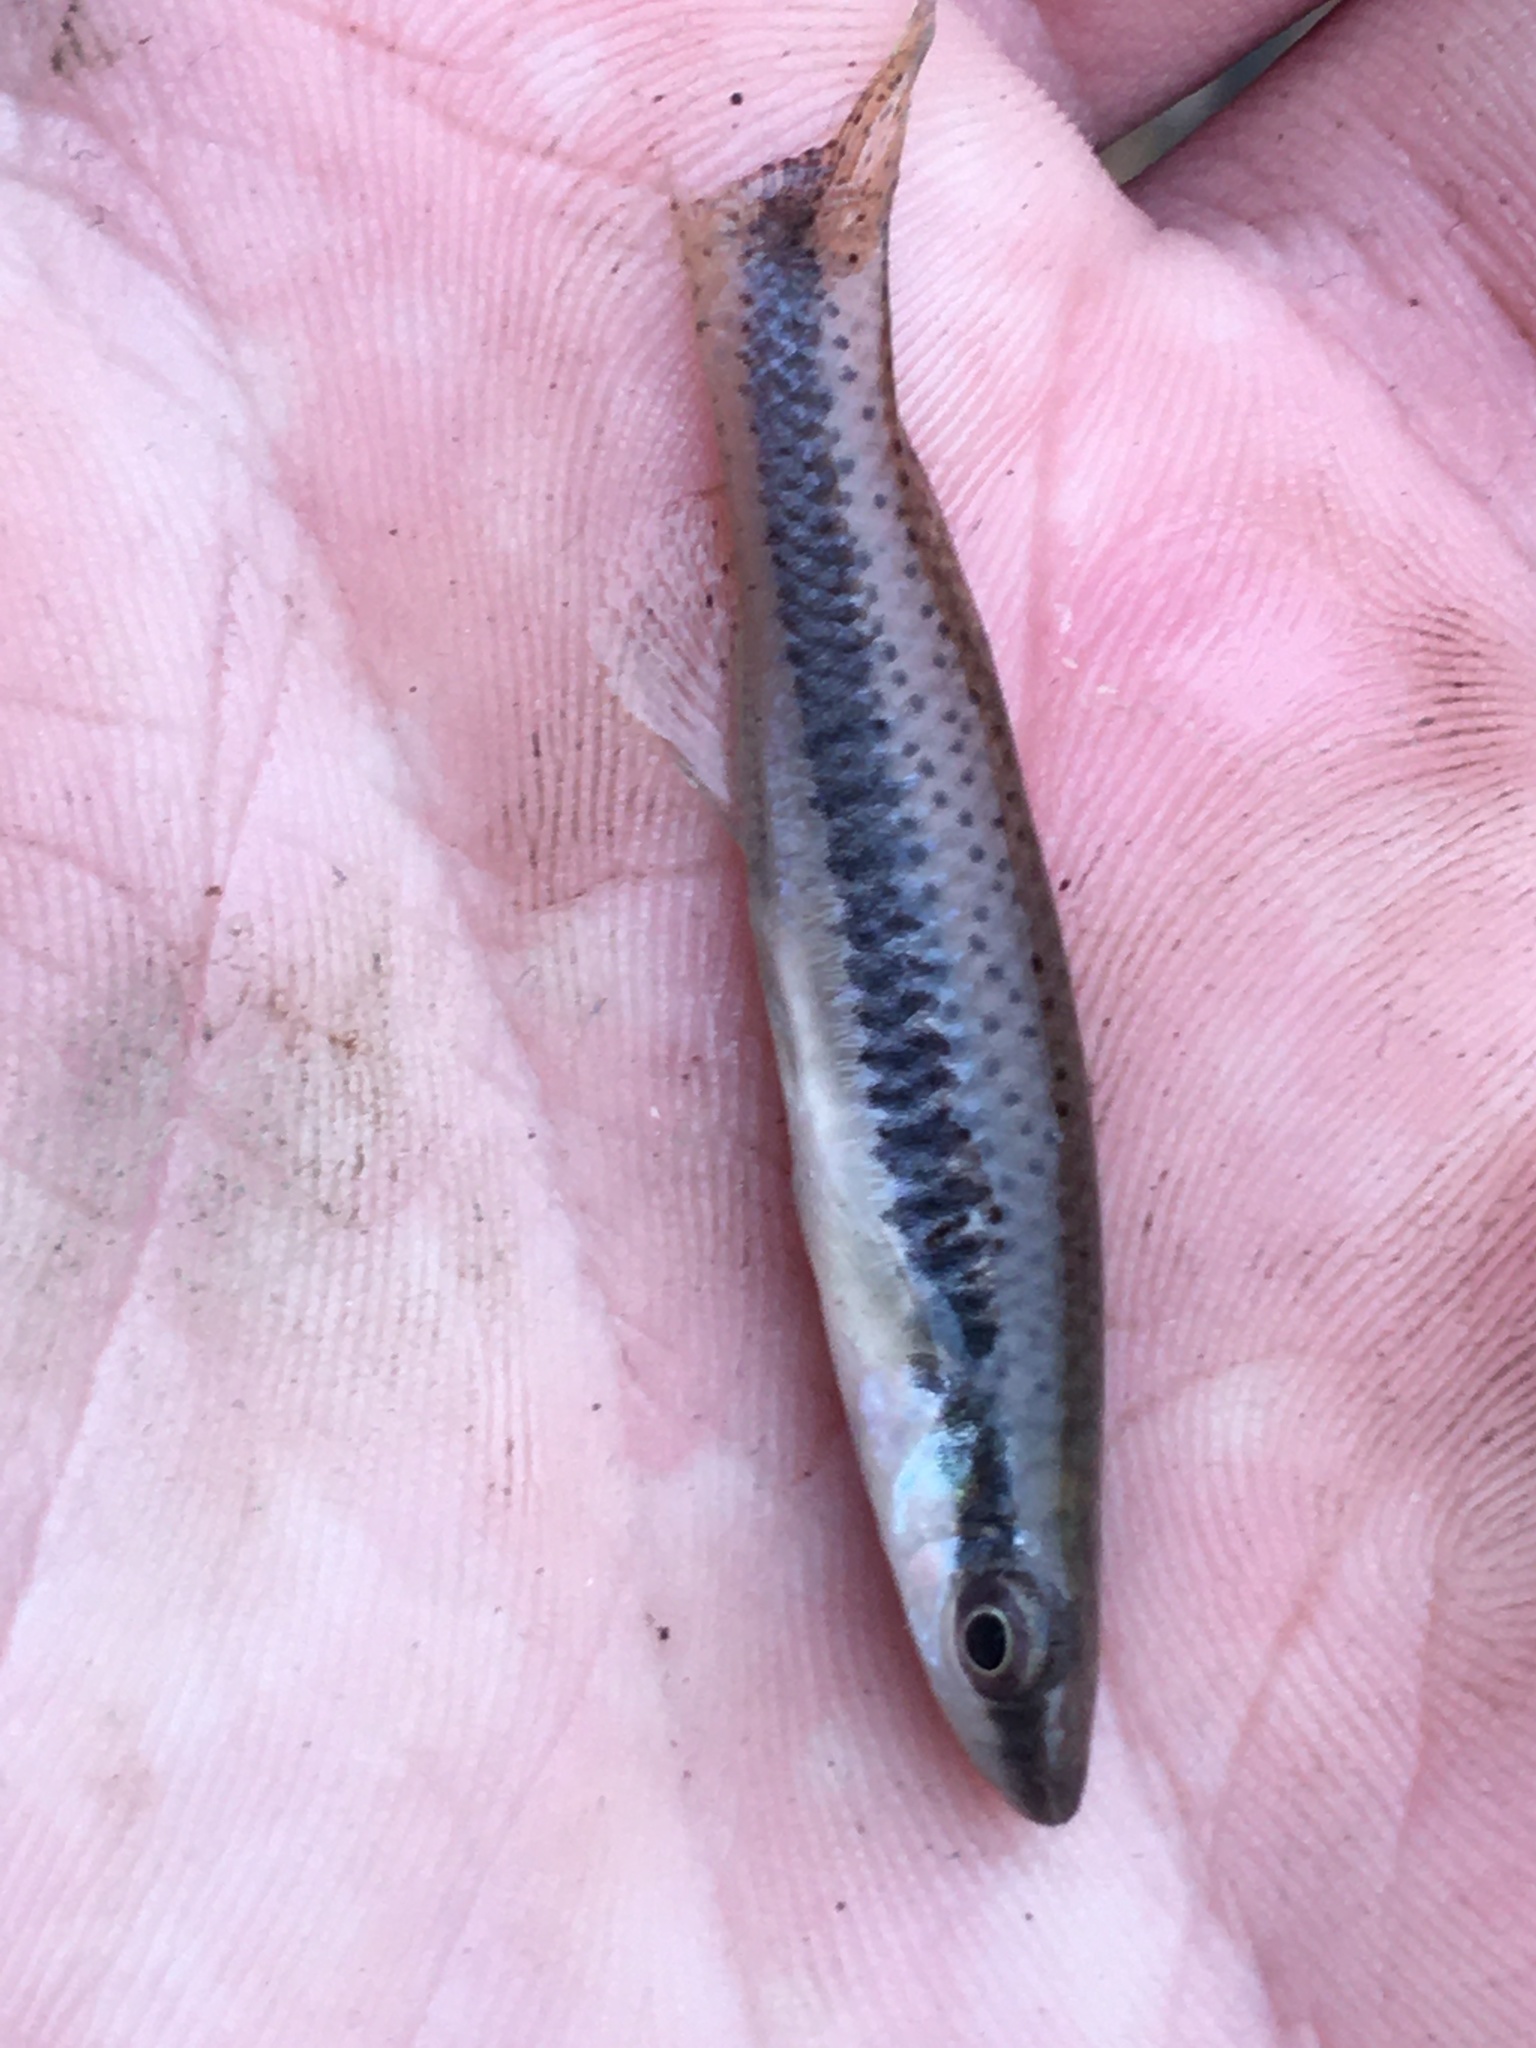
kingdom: Animalia
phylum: Chordata
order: Cyprinodontiformes
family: Fundulidae
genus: Fundulus
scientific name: Fundulus olivaceus
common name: Blackspotted topminnow
